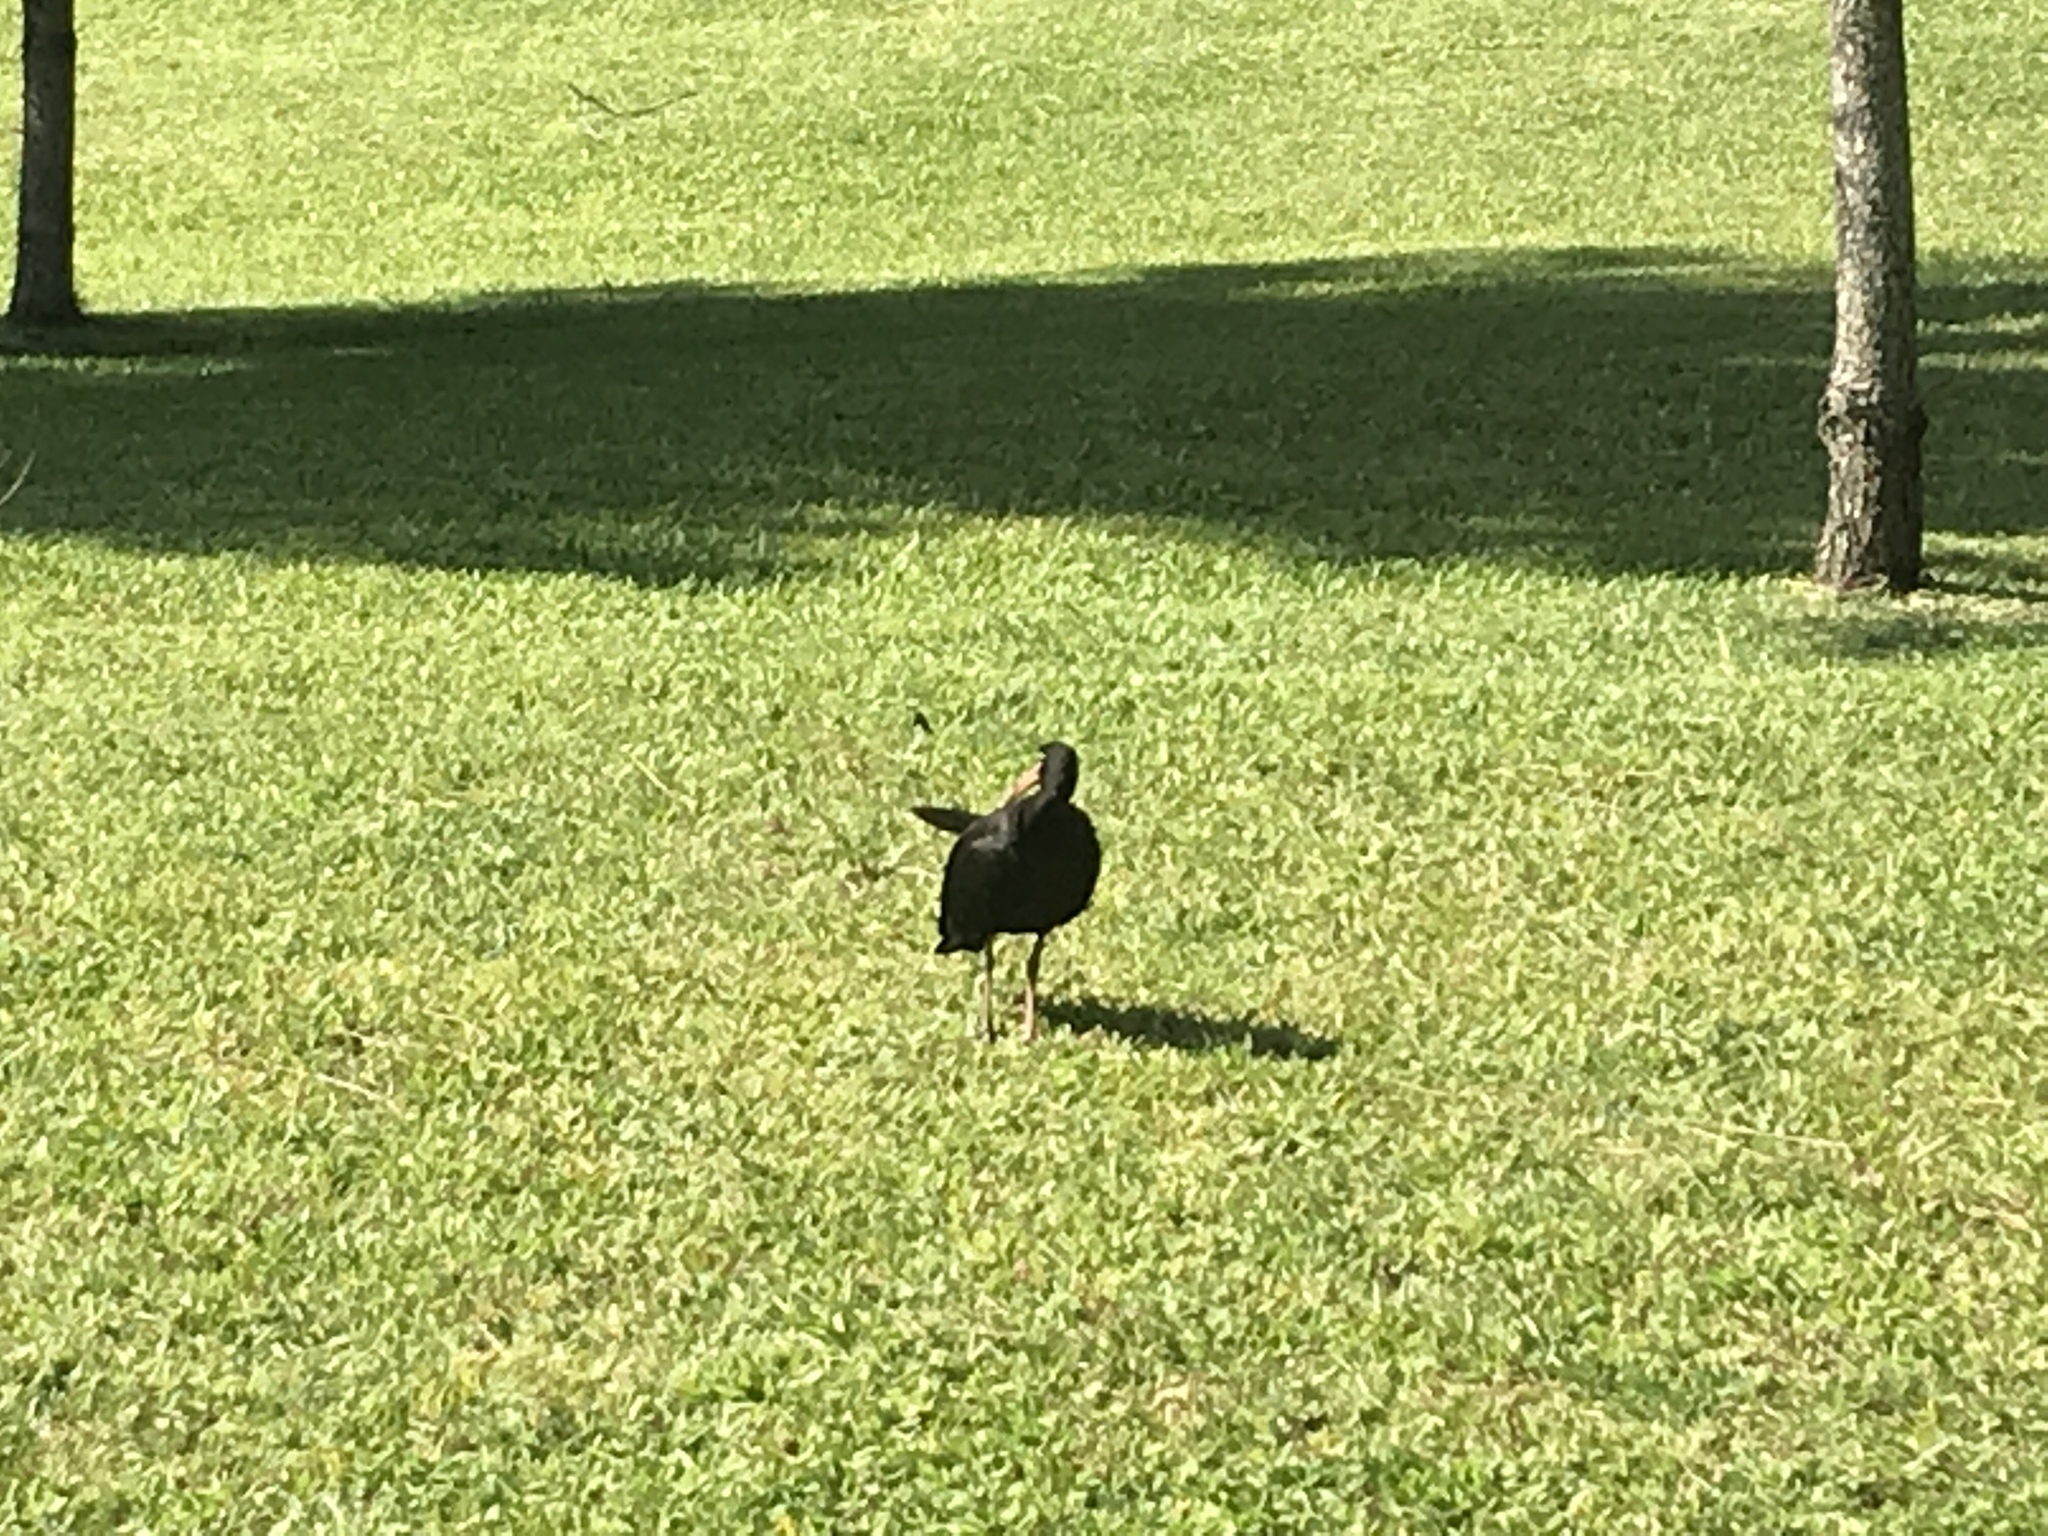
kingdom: Animalia
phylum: Chordata
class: Aves
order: Pelecaniformes
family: Threskiornithidae
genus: Phimosus
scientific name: Phimosus infuscatus
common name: Bare-faced ibis
